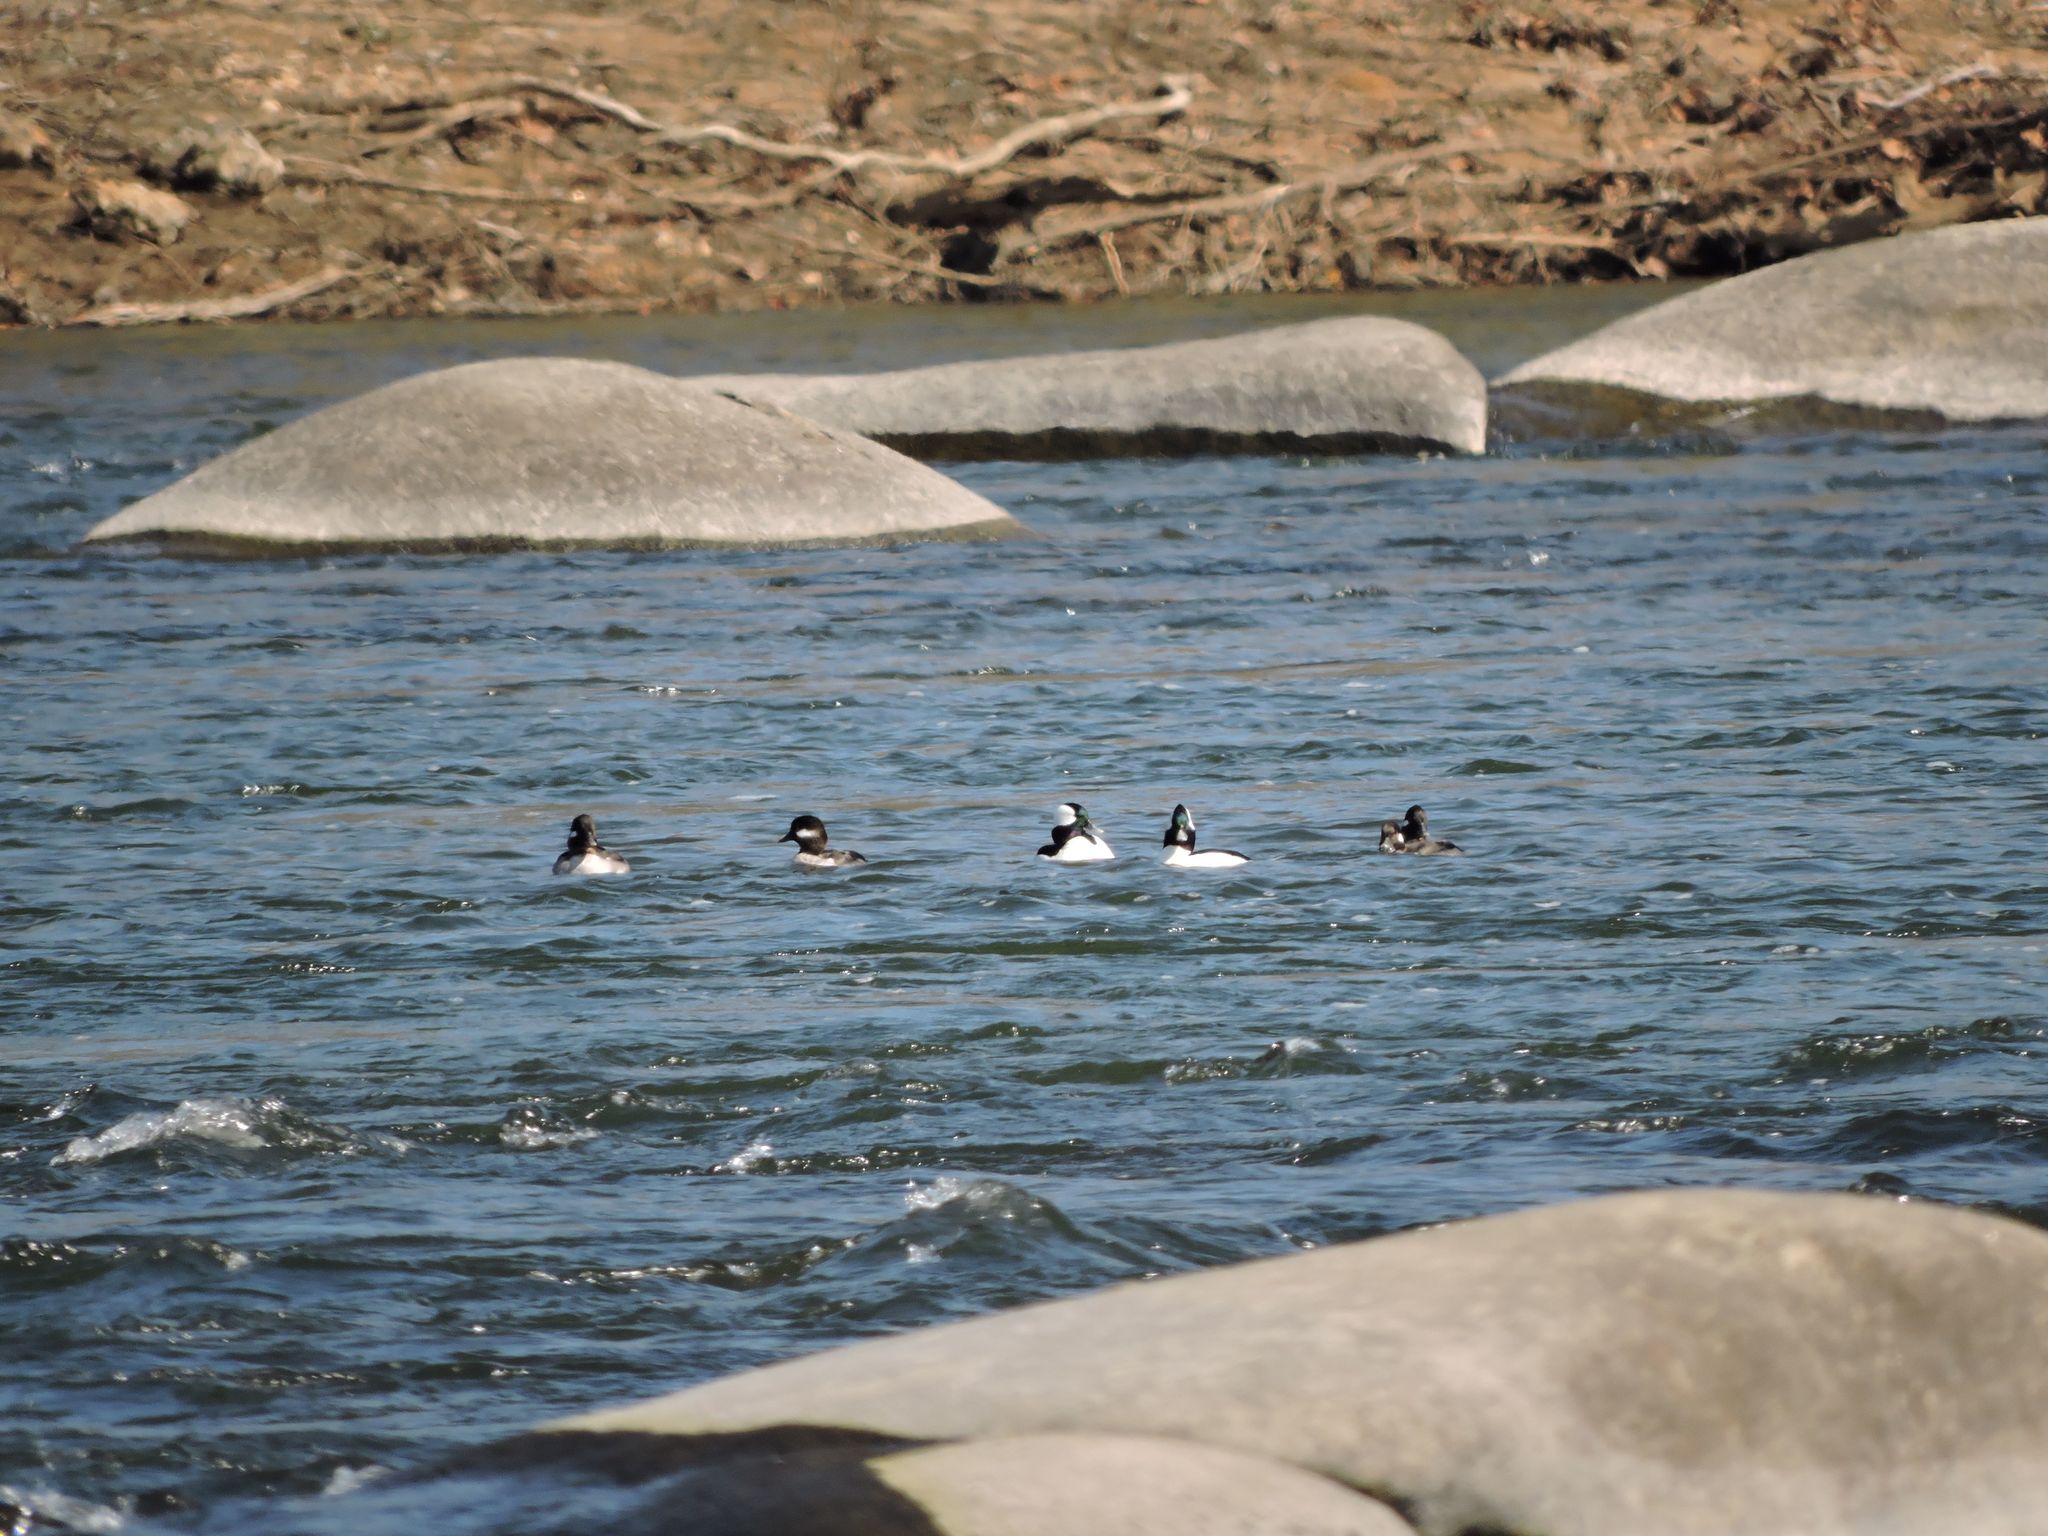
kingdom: Animalia
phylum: Chordata
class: Aves
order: Anseriformes
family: Anatidae
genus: Bucephala
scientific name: Bucephala albeola
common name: Bufflehead
